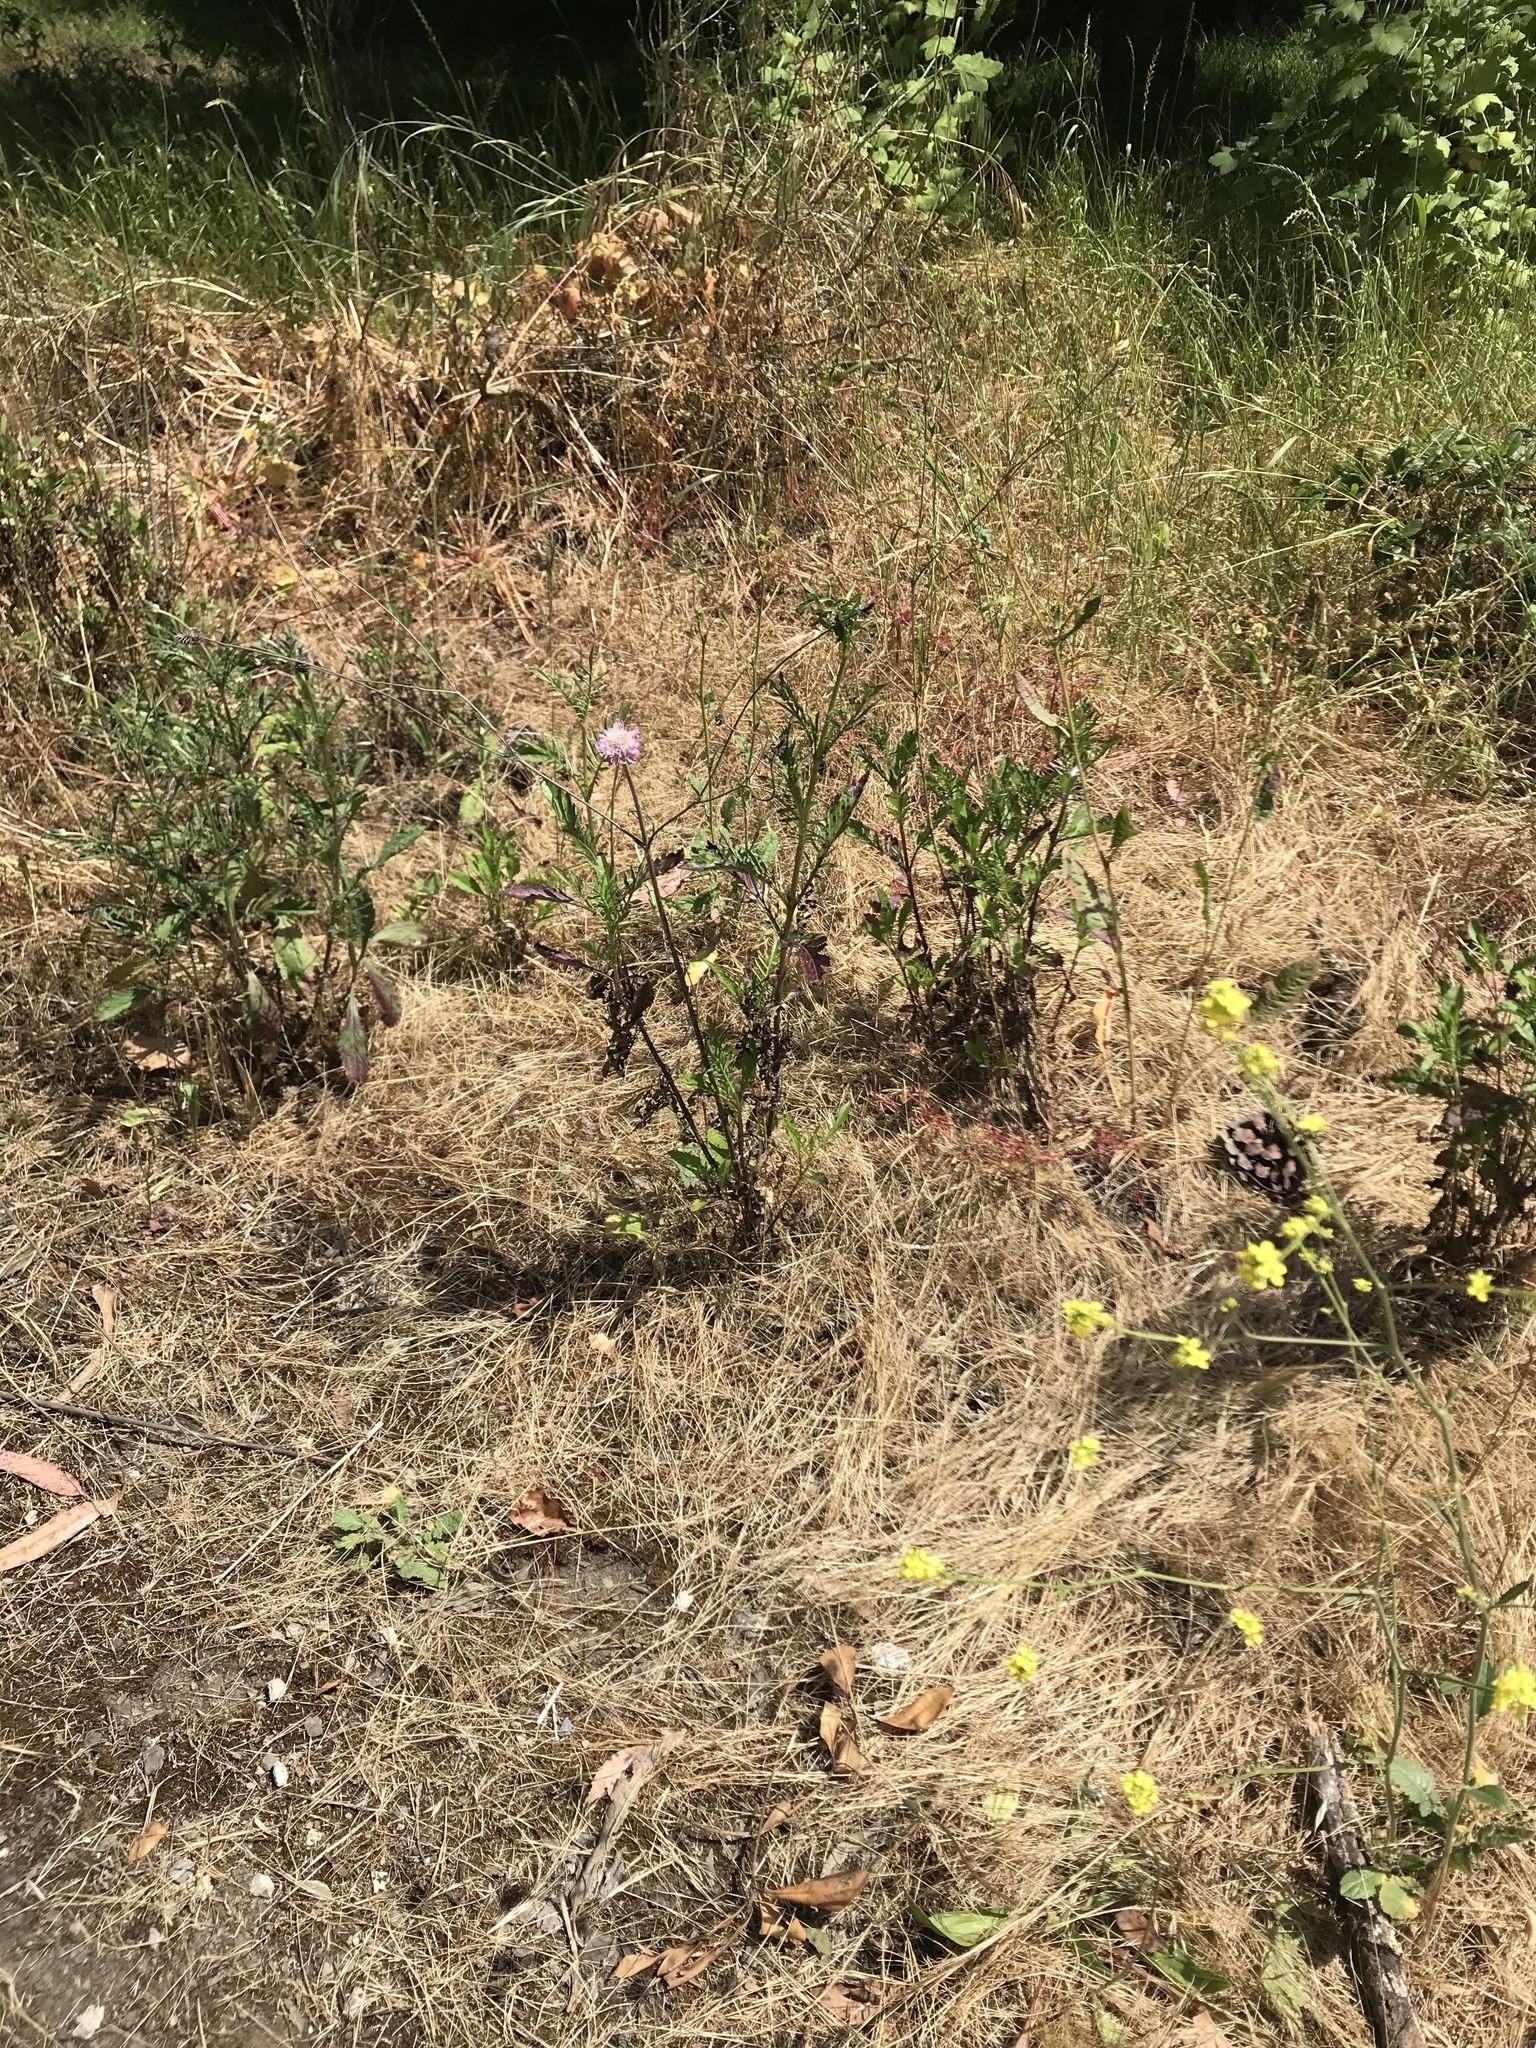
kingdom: Plantae
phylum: Tracheophyta
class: Magnoliopsida
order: Dipsacales
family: Caprifoliaceae
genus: Sixalix
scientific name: Sixalix atropurpurea
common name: Sweet scabious
